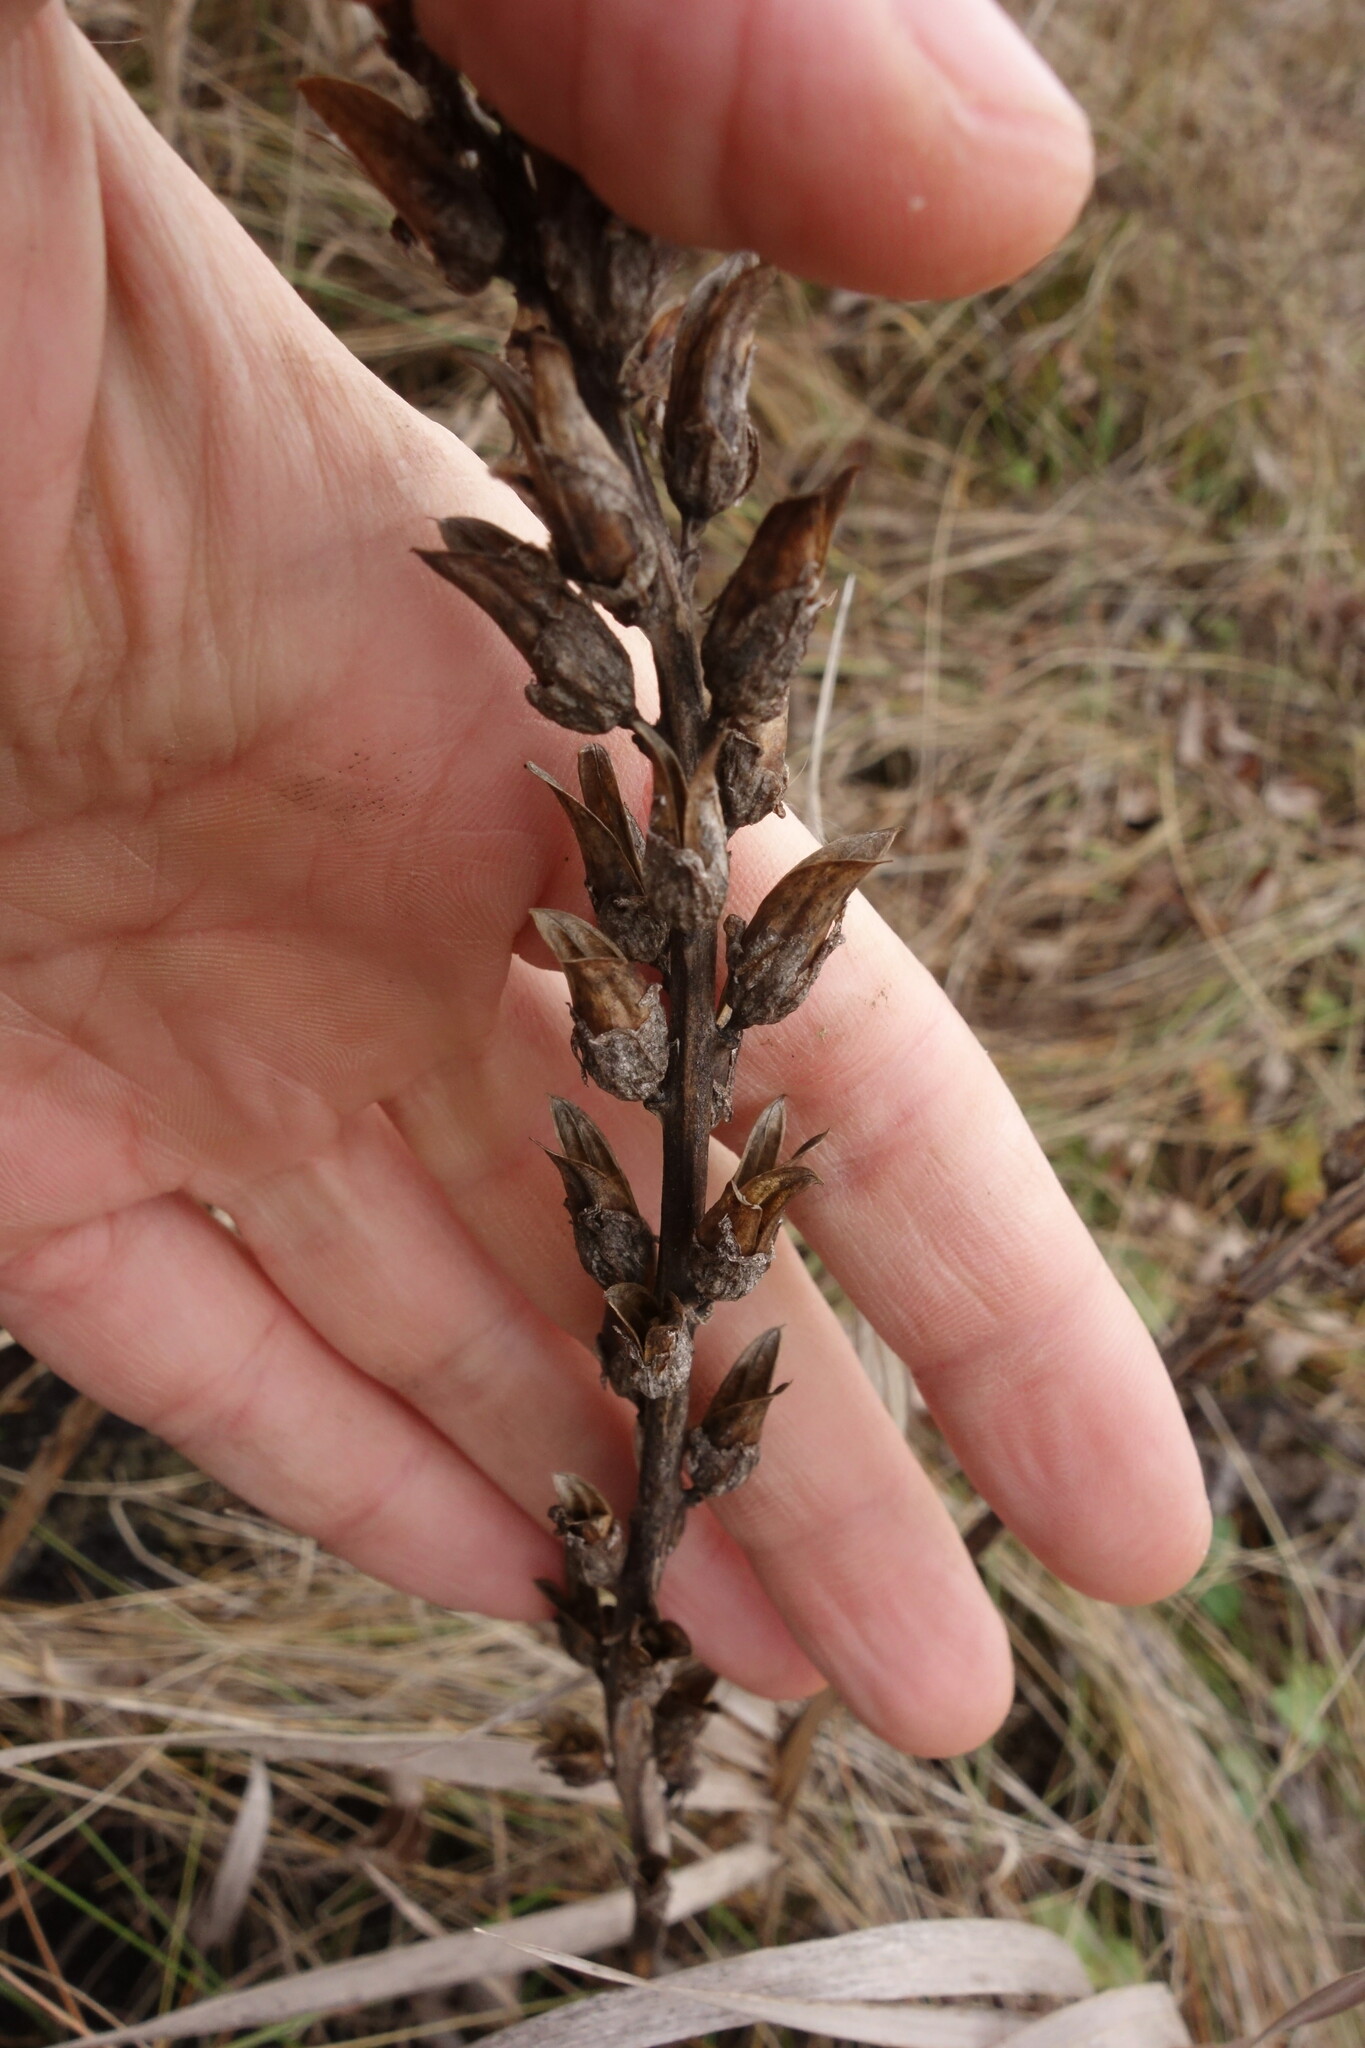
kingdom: Plantae
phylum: Tracheophyta
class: Magnoliopsida
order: Lamiales
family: Orobanchaceae
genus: Pedicularis
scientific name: Pedicularis kaufmannii
